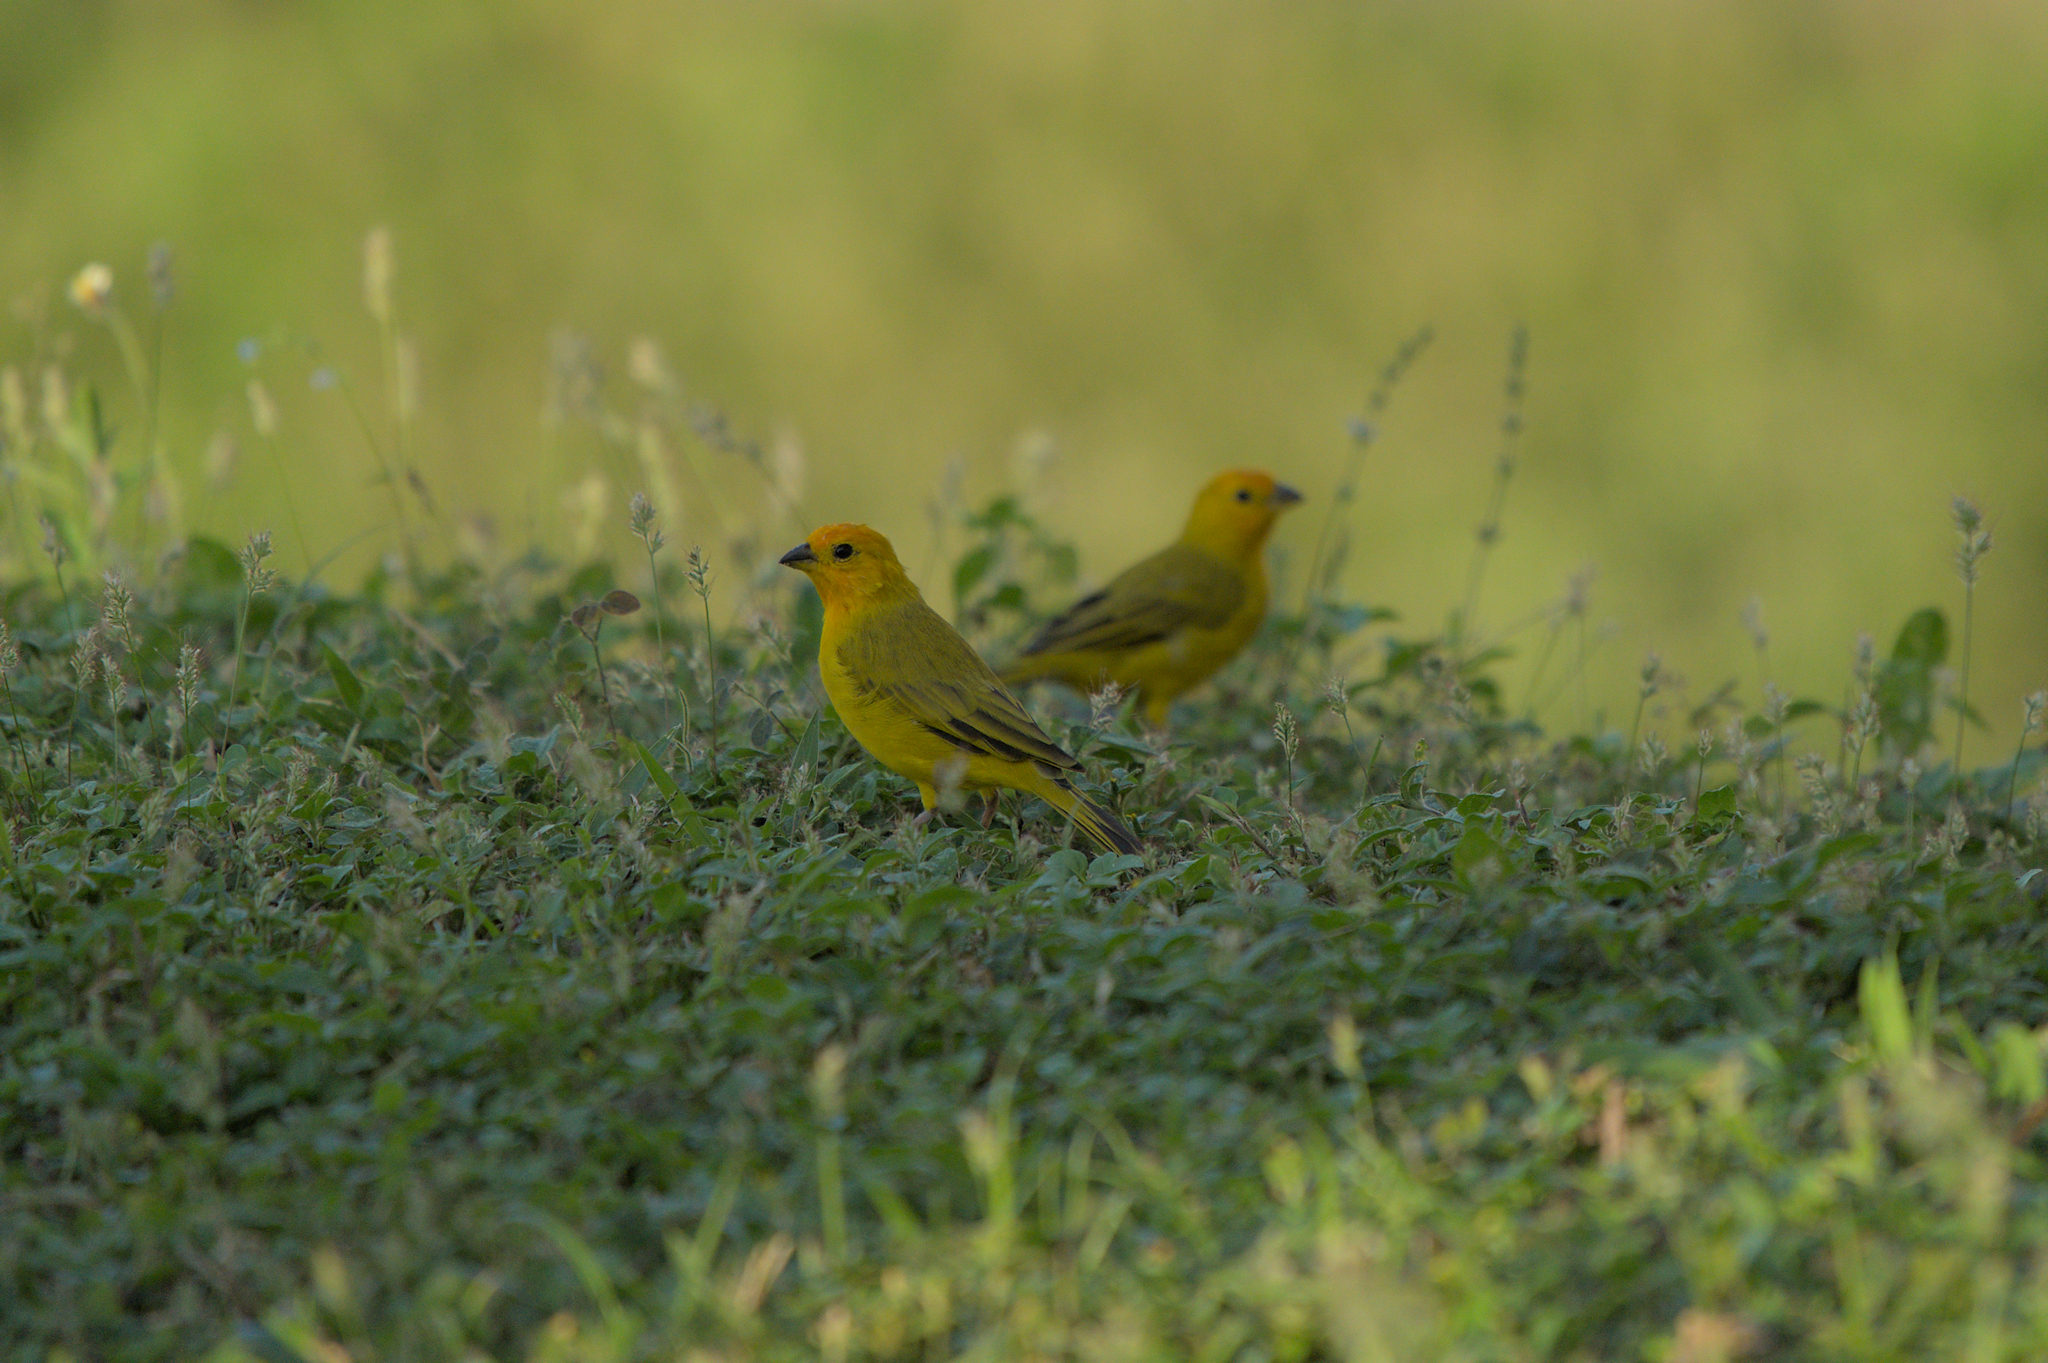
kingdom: Animalia
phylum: Chordata
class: Aves
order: Passeriformes
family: Thraupidae
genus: Sicalis
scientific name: Sicalis flaveola
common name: Saffron finch
